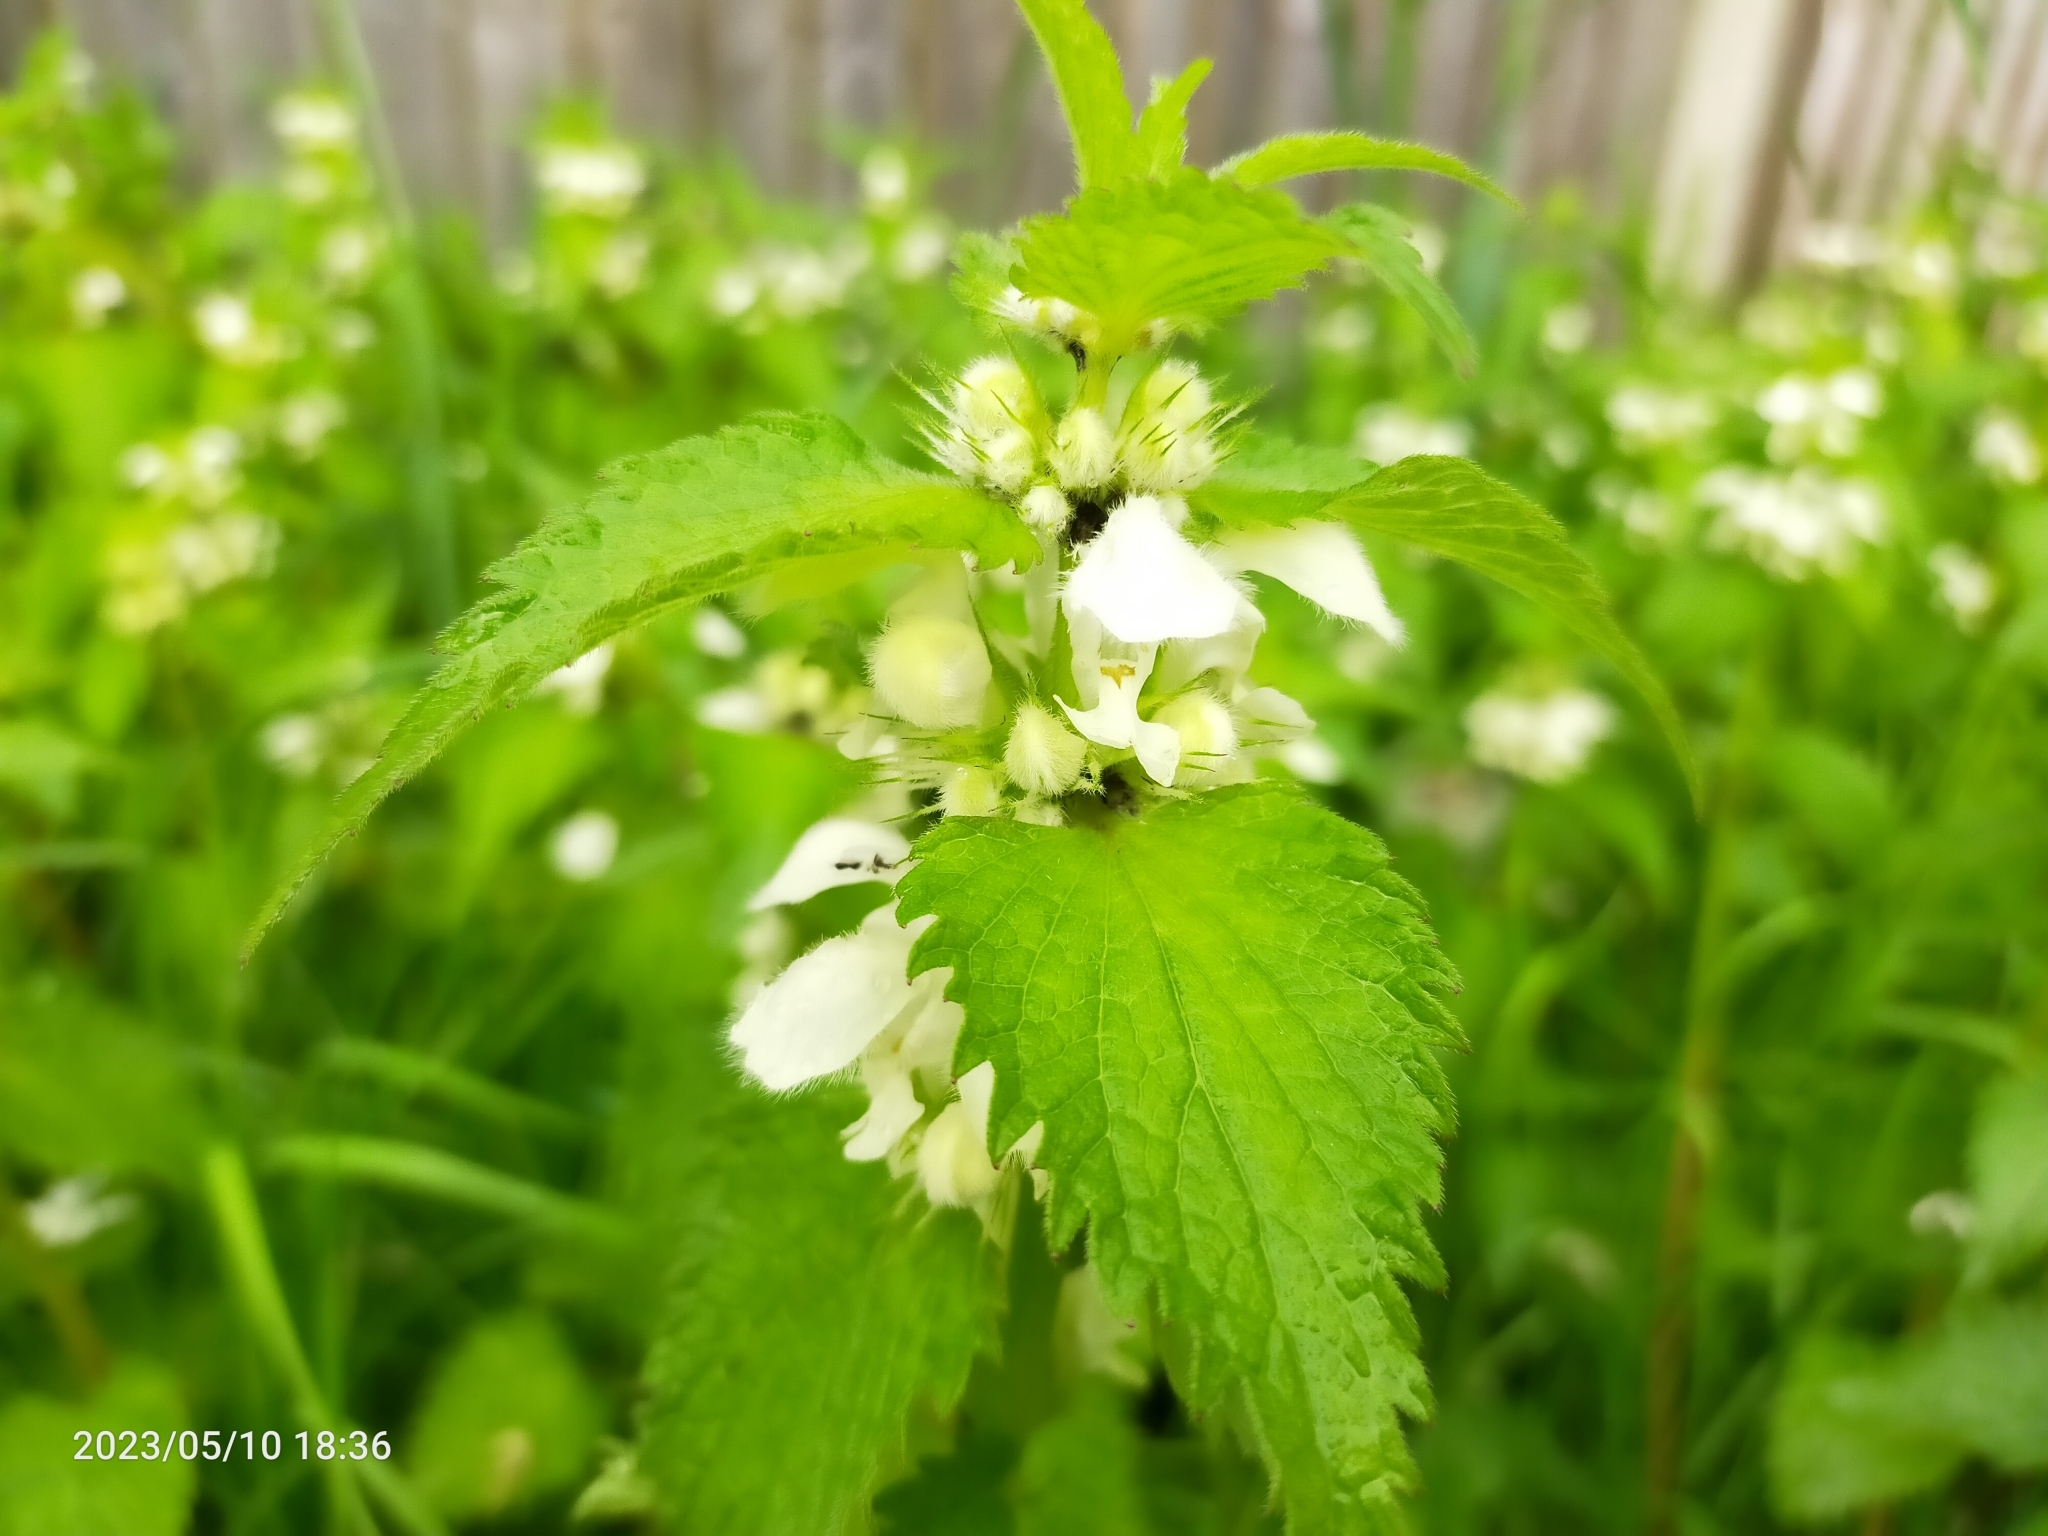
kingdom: Plantae
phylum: Tracheophyta
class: Magnoliopsida
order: Lamiales
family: Lamiaceae
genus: Lamium
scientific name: Lamium album
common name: White dead-nettle
